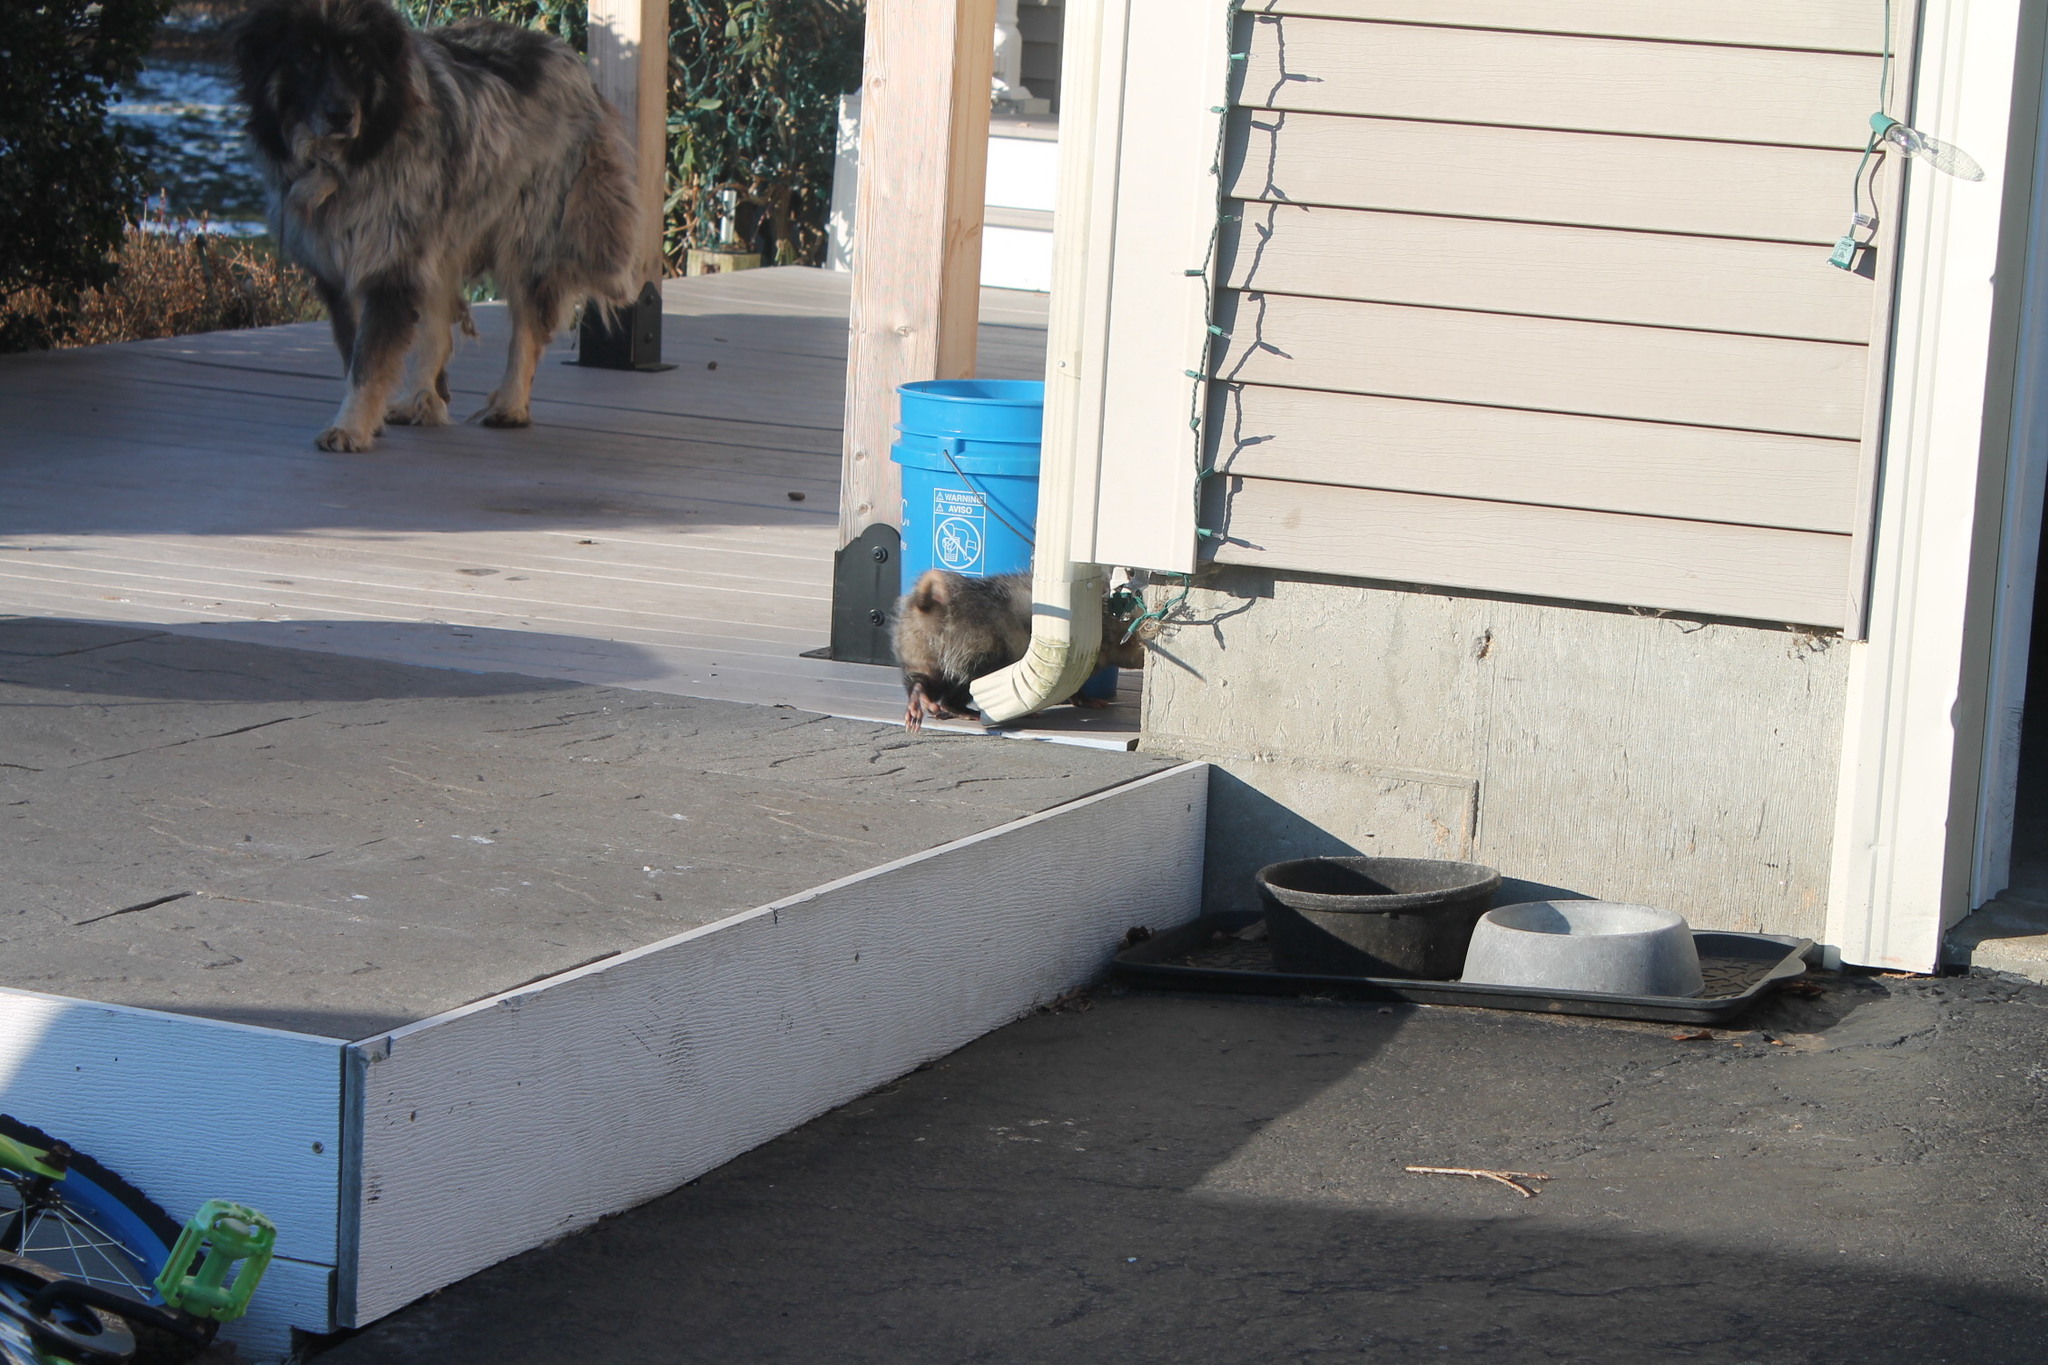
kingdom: Animalia
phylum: Chordata
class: Mammalia
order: Didelphimorphia
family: Didelphidae
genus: Didelphis
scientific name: Didelphis virginiana
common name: Virginia opossum
